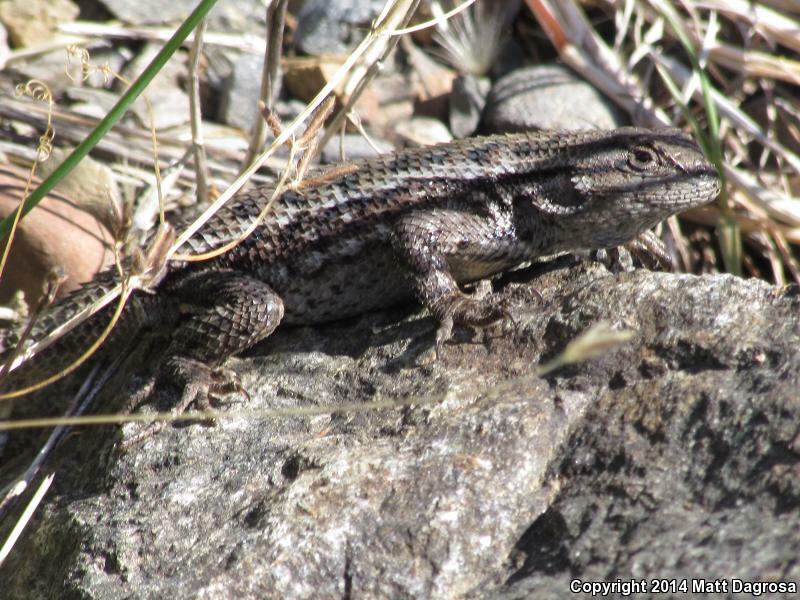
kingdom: Animalia
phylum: Chordata
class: Squamata
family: Phrynosomatidae
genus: Sceloporus
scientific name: Sceloporus occidentalis
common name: Western fence lizard
